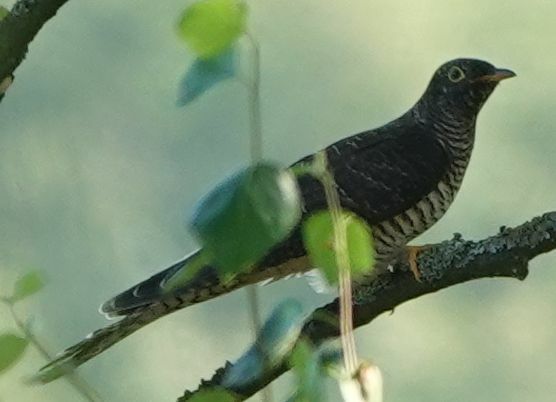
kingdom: Animalia
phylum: Chordata
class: Aves
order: Cuculiformes
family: Cuculidae
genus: Cuculus
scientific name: Cuculus canorus
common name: Common cuckoo
